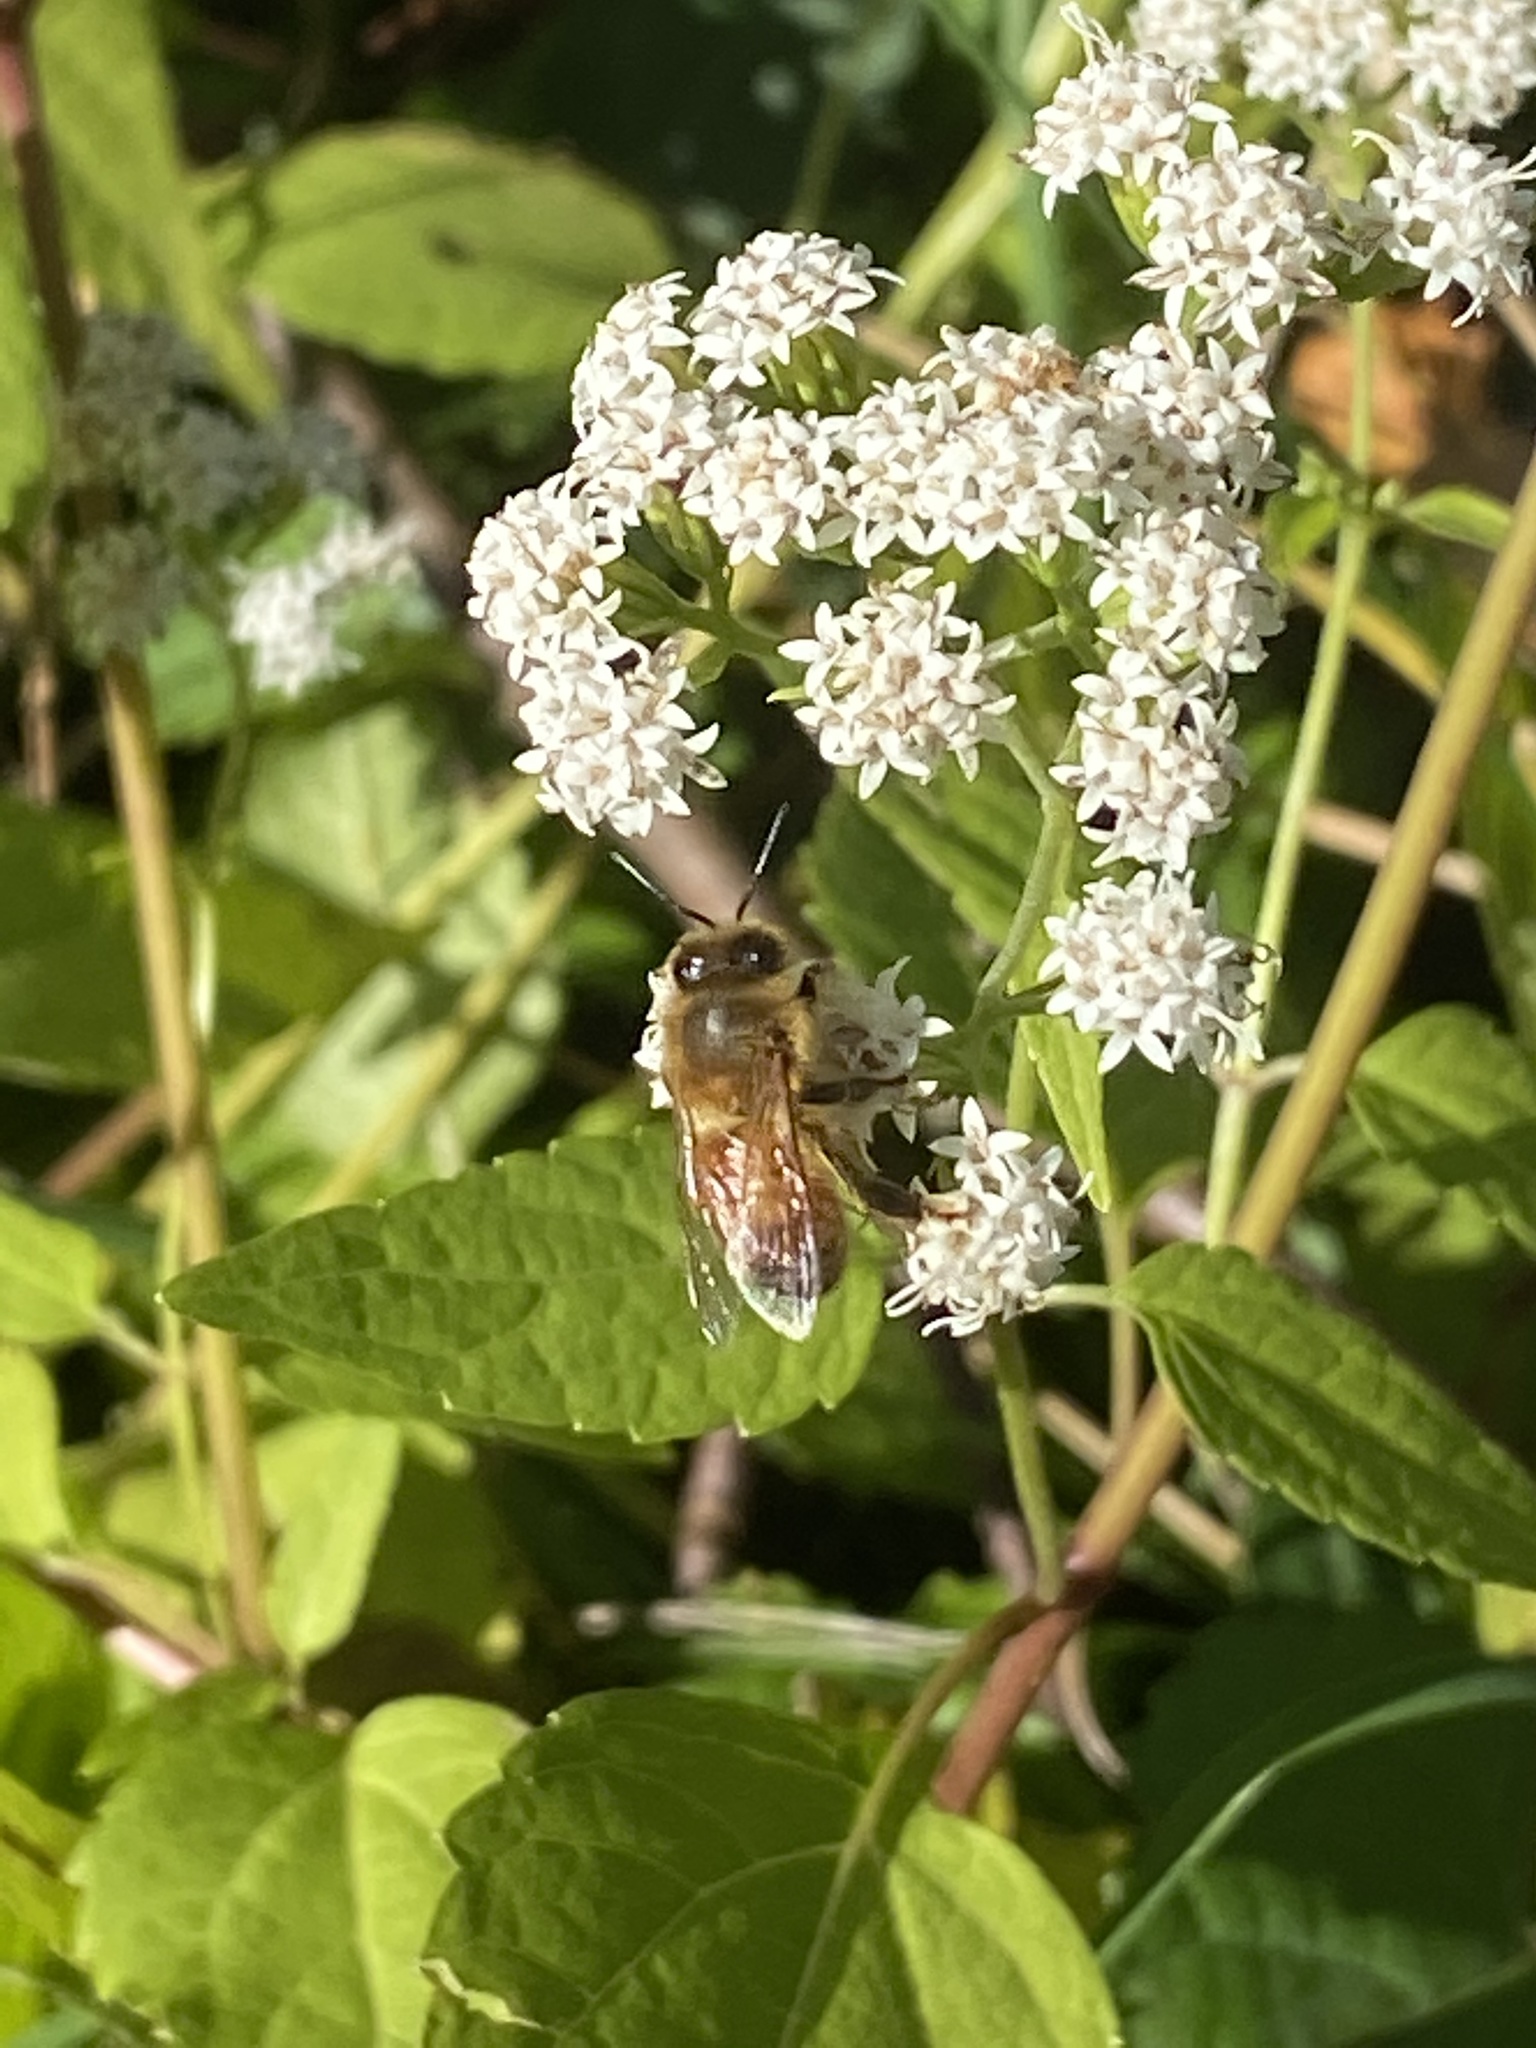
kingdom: Animalia
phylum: Arthropoda
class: Insecta
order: Hymenoptera
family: Apidae
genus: Apis
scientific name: Apis mellifera
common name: Honey bee
